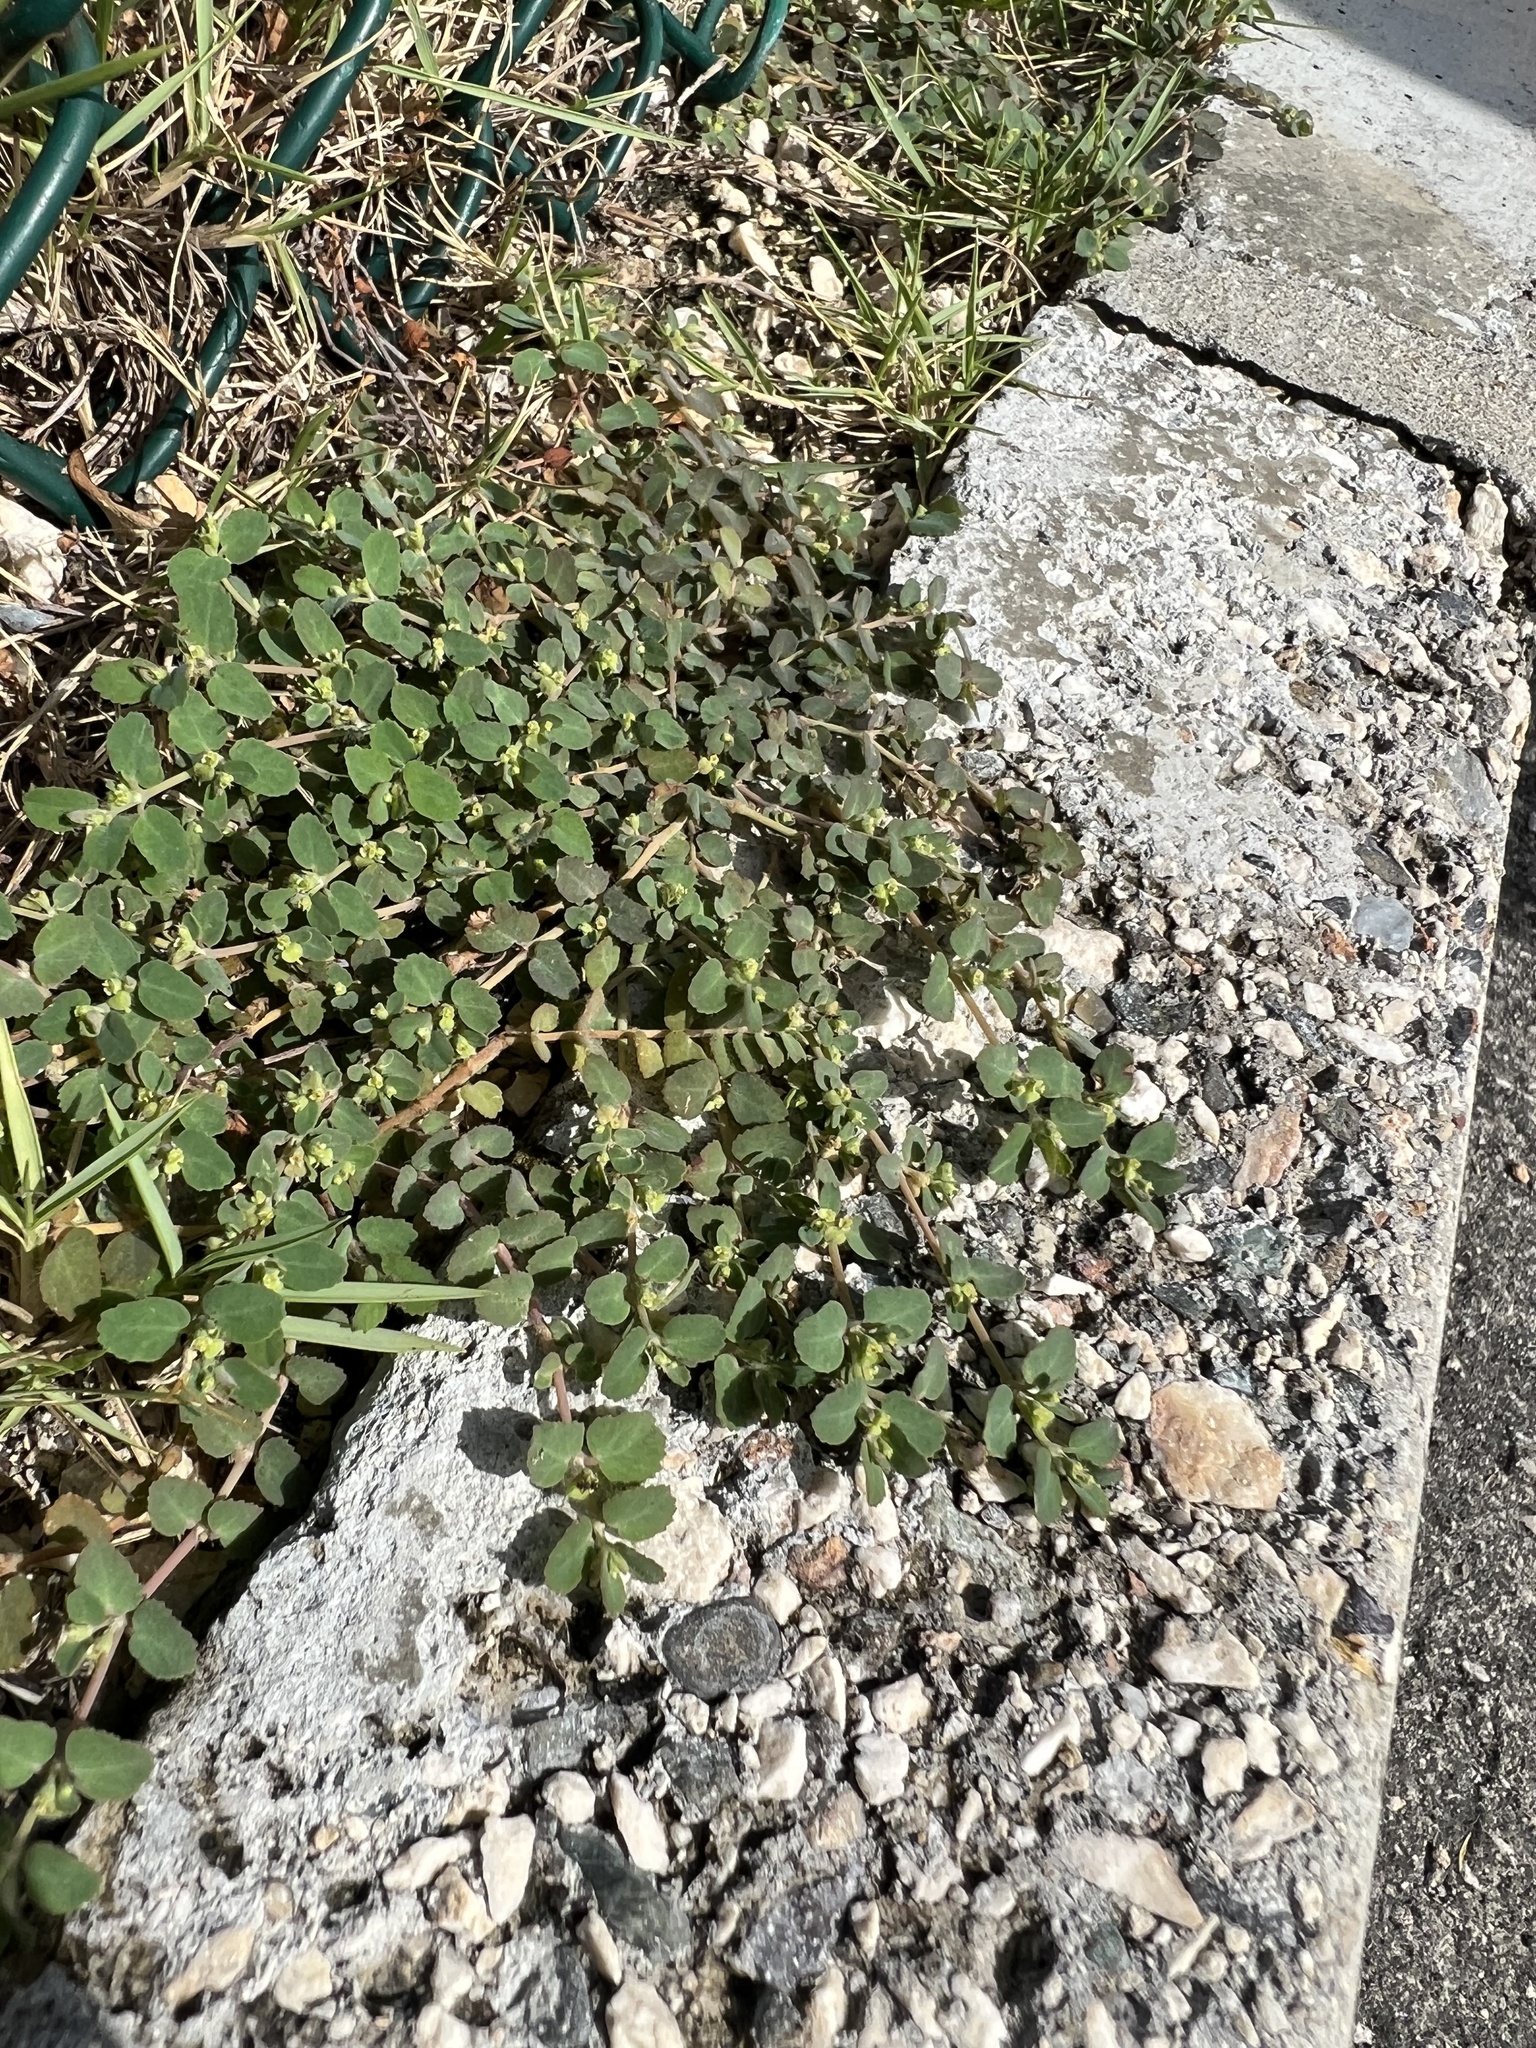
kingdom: Plantae
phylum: Tracheophyta
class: Magnoliopsida
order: Malpighiales
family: Euphorbiaceae
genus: Euphorbia
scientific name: Euphorbia cozumelensis
